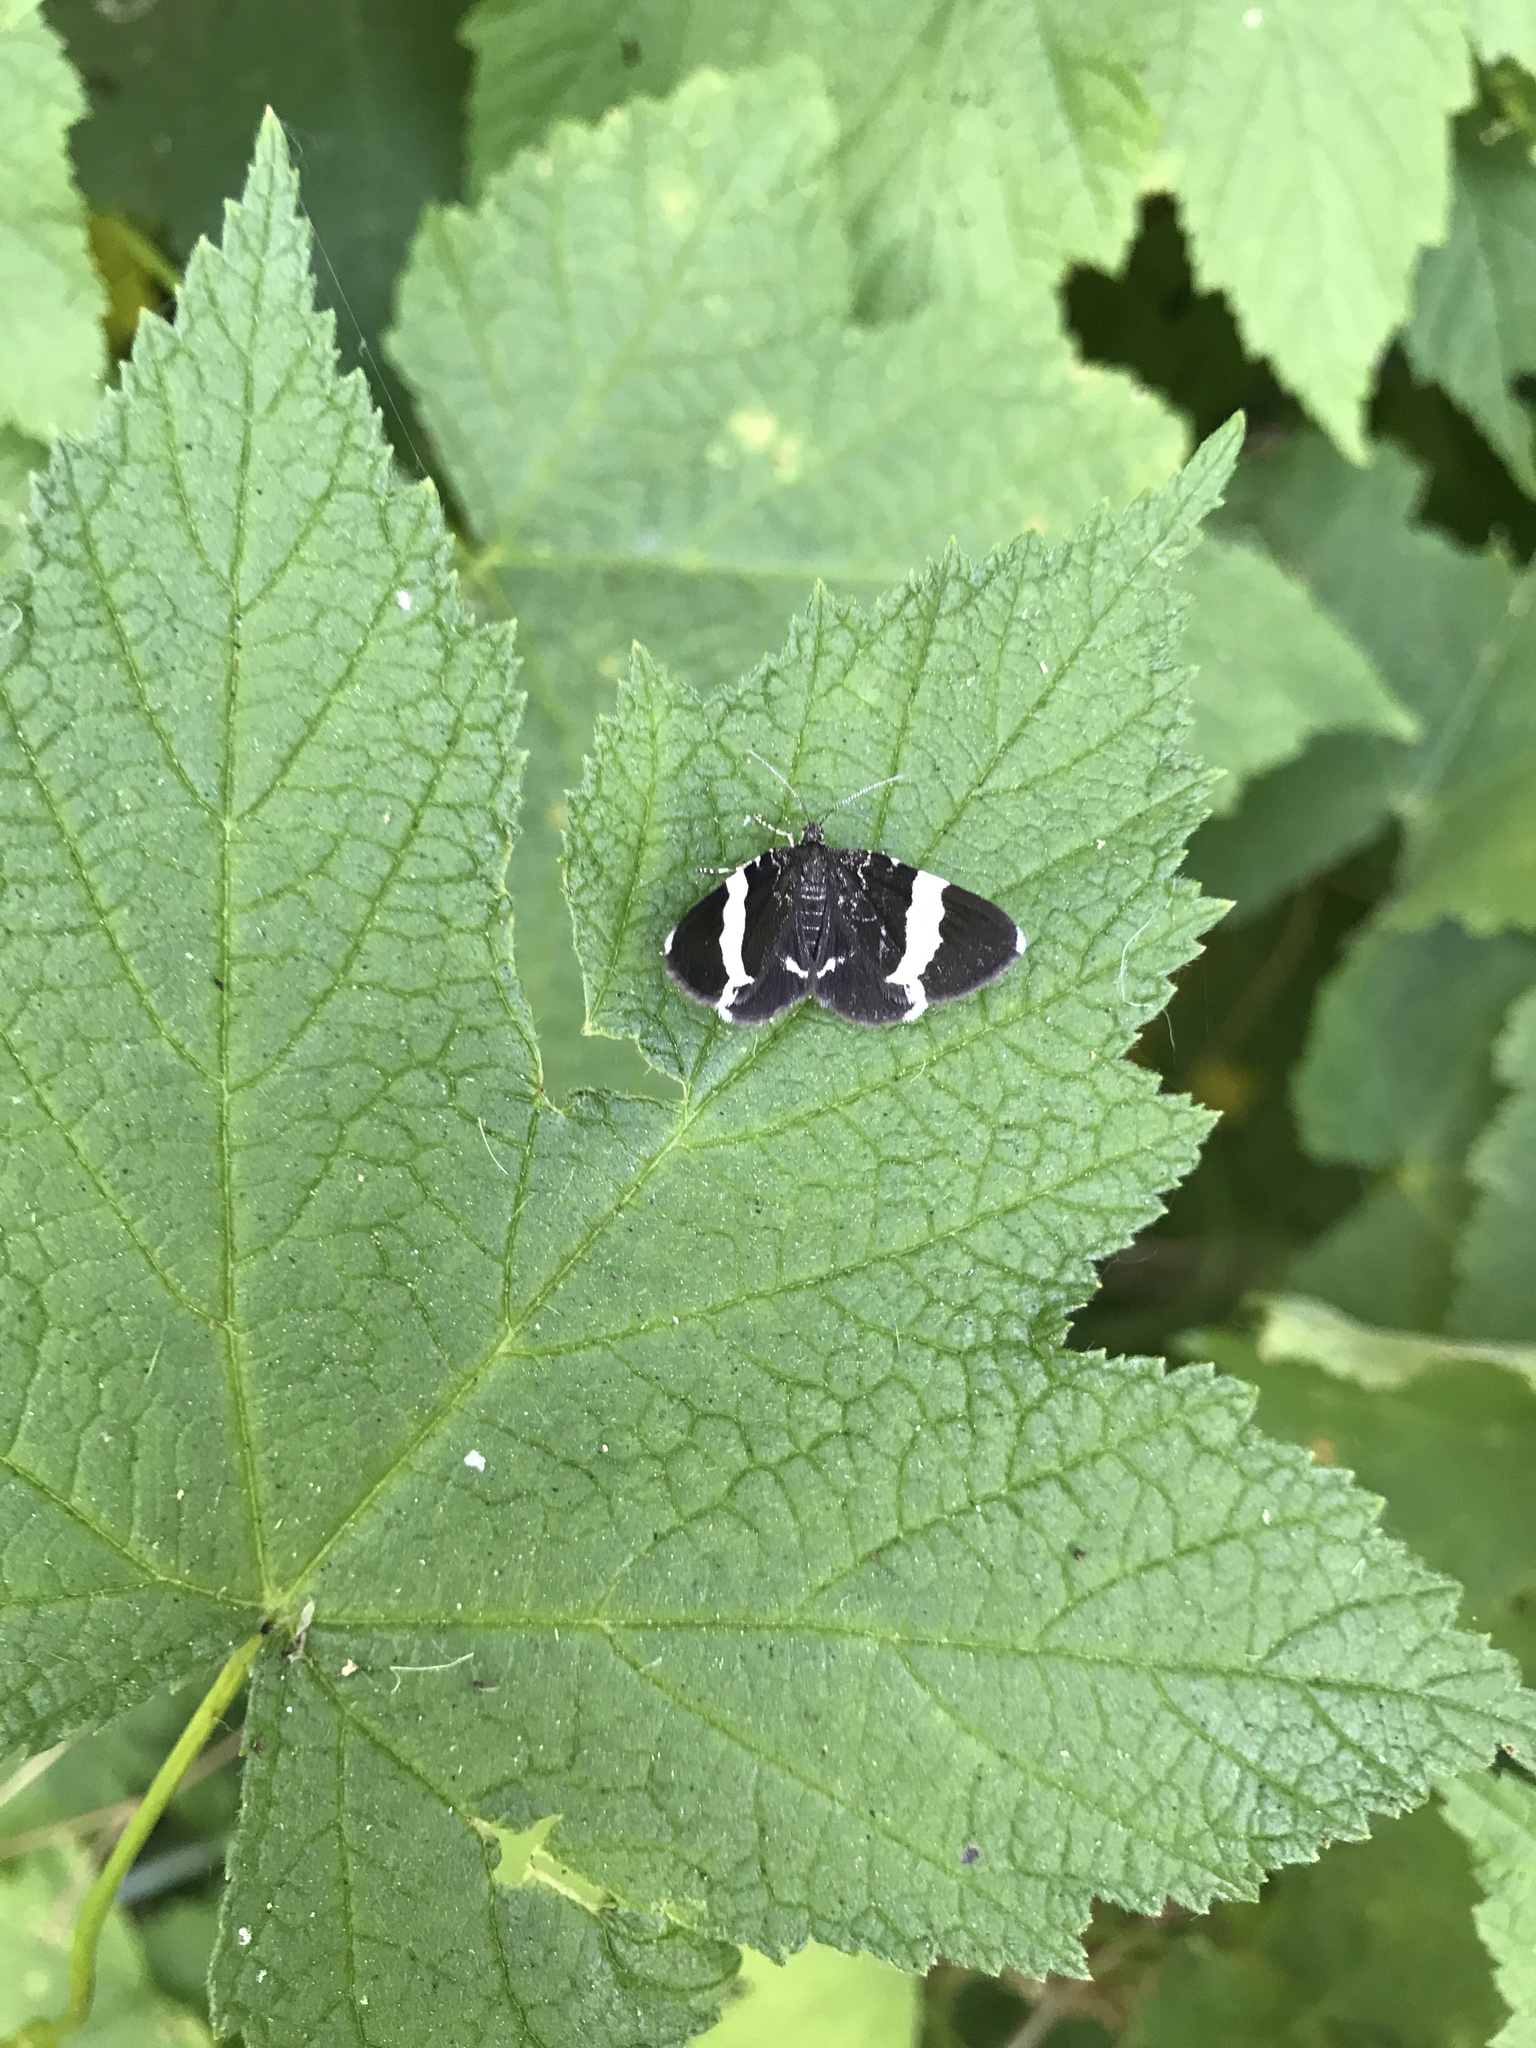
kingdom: Animalia
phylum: Arthropoda
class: Insecta
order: Lepidoptera
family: Geometridae
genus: Trichodezia
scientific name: Trichodezia albovittata
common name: White striped black
